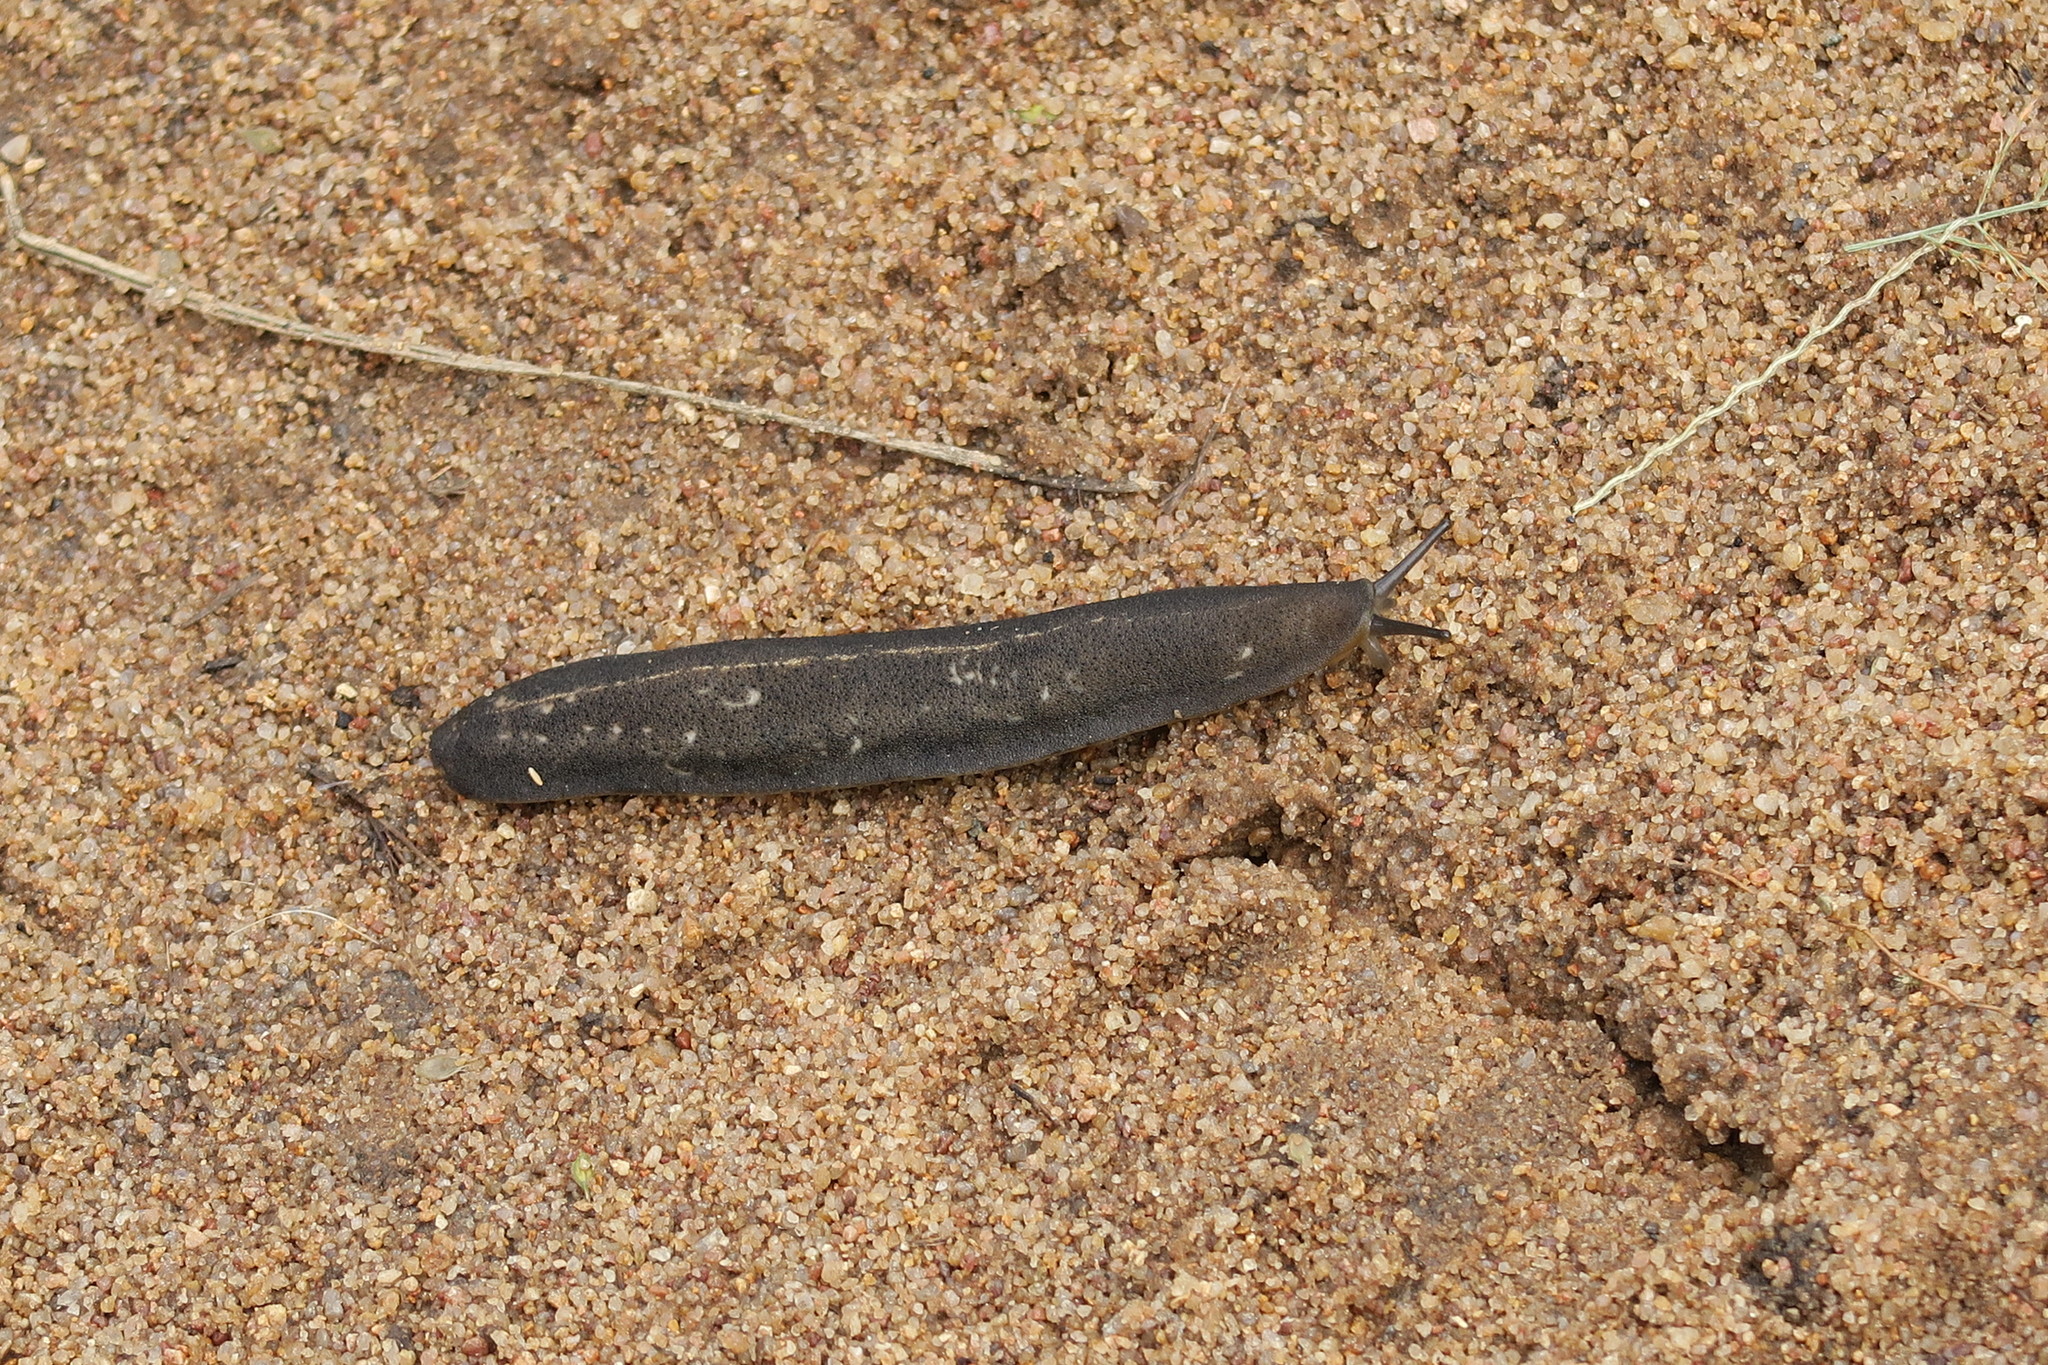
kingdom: Animalia
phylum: Mollusca
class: Gastropoda
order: Systellommatophora
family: Veronicellidae
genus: Laevicaulis
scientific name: Laevicaulis alte
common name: Tropical leatherleaf
